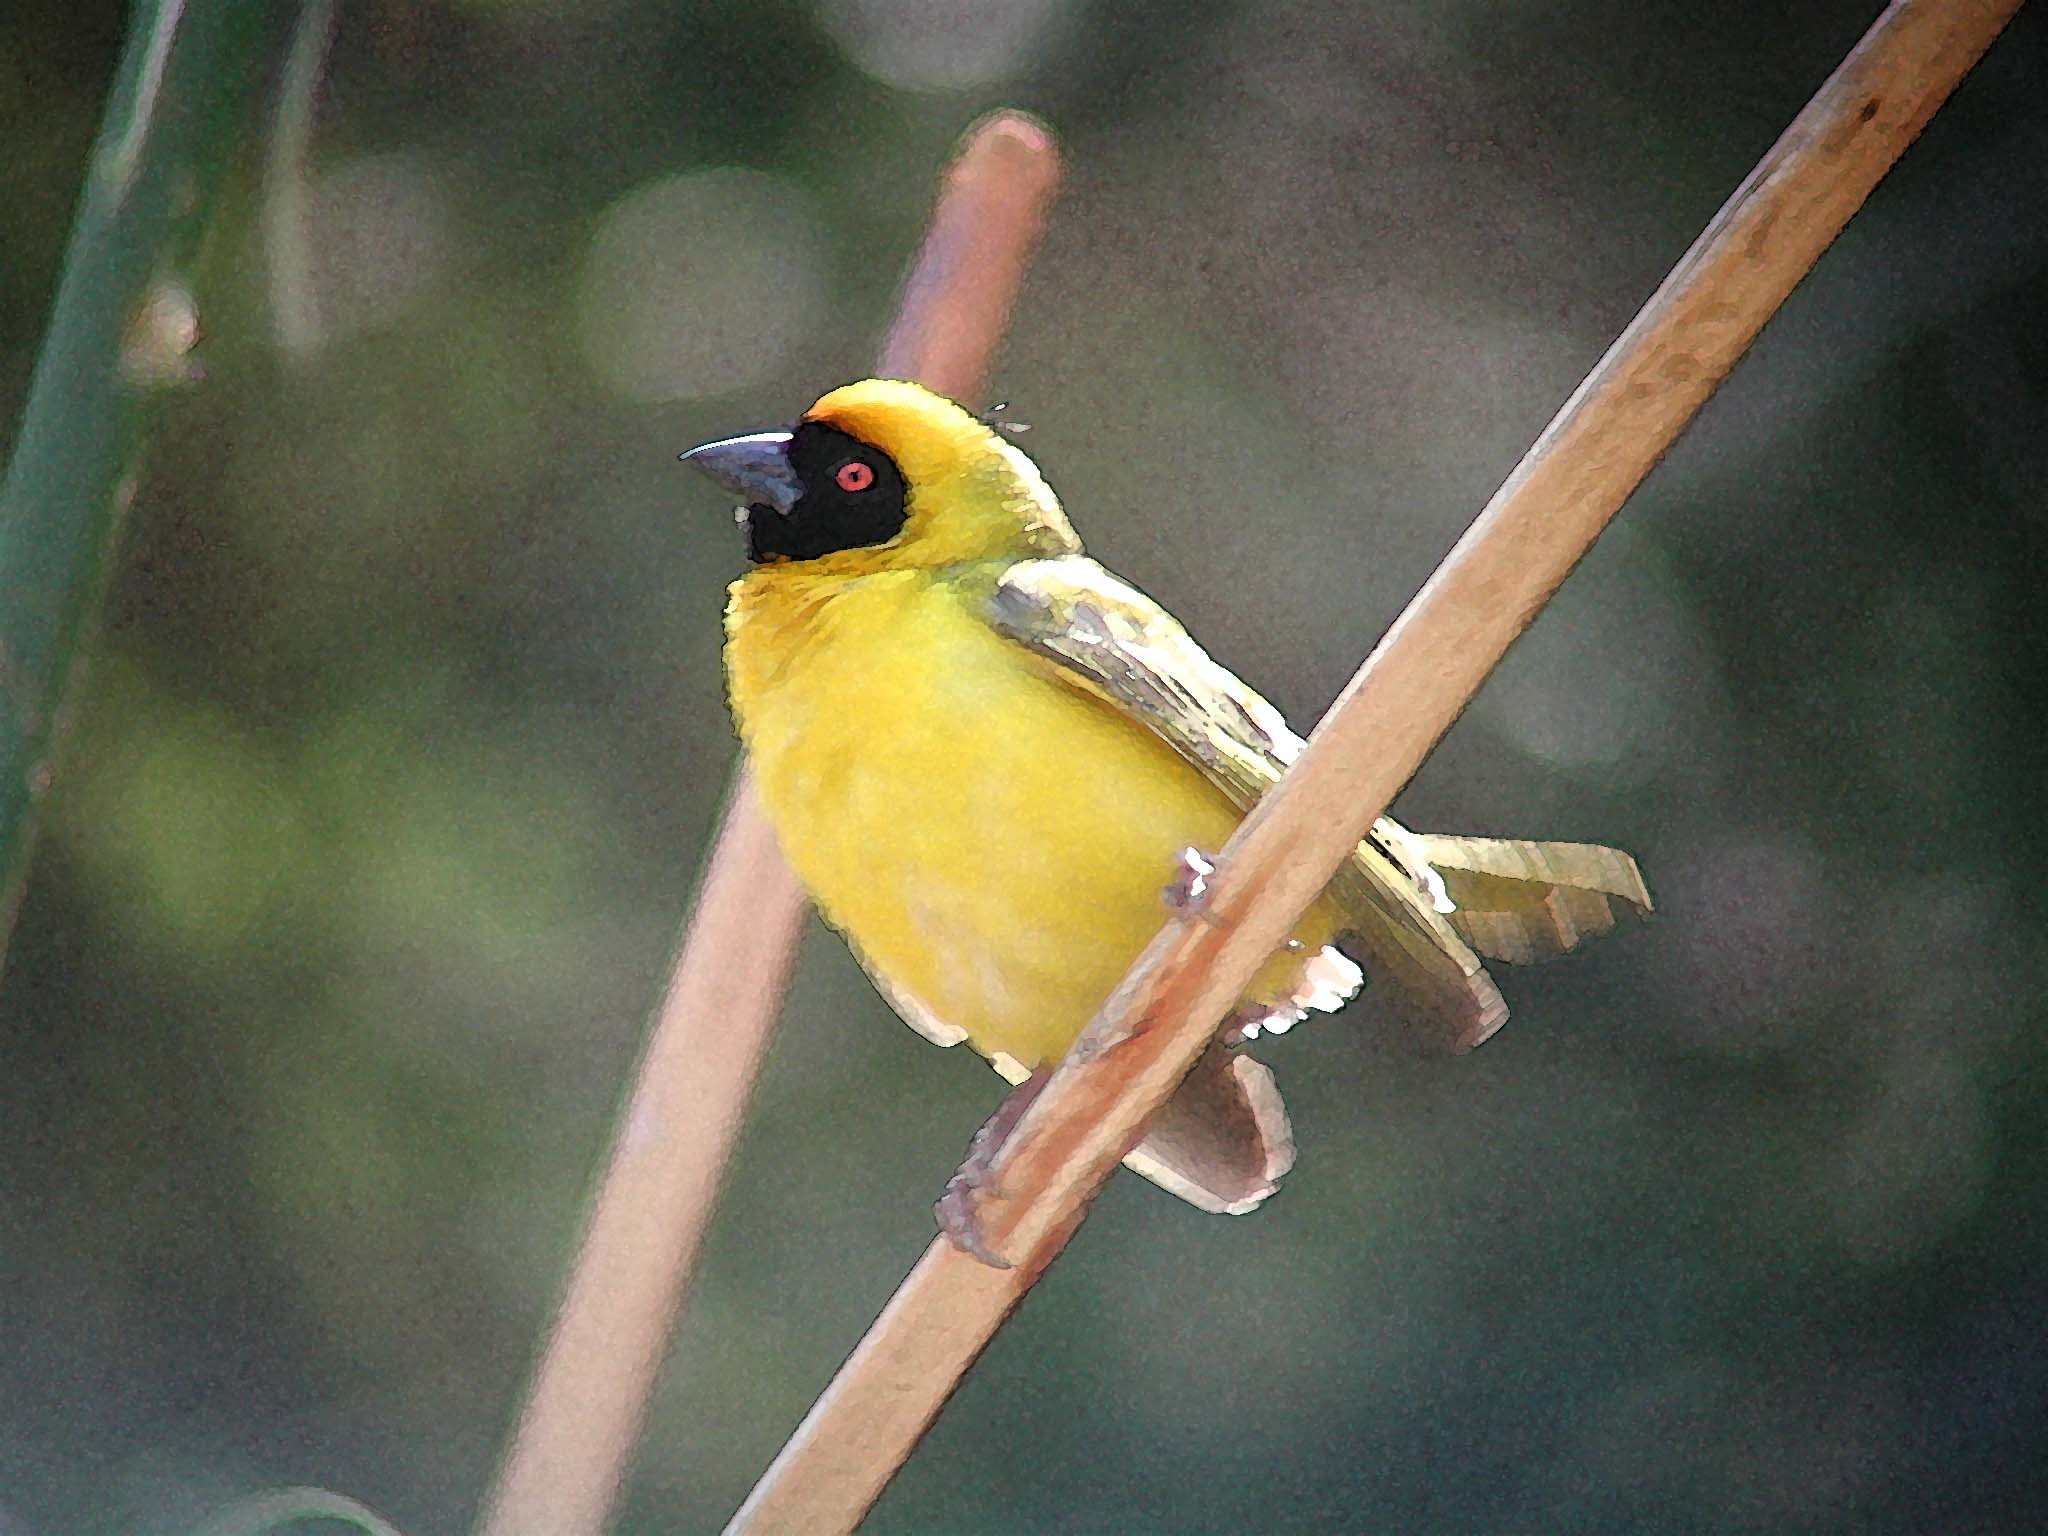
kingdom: Animalia
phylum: Chordata
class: Aves
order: Passeriformes
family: Ploceidae
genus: Ploceus
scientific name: Ploceus velatus
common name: Southern masked weaver
